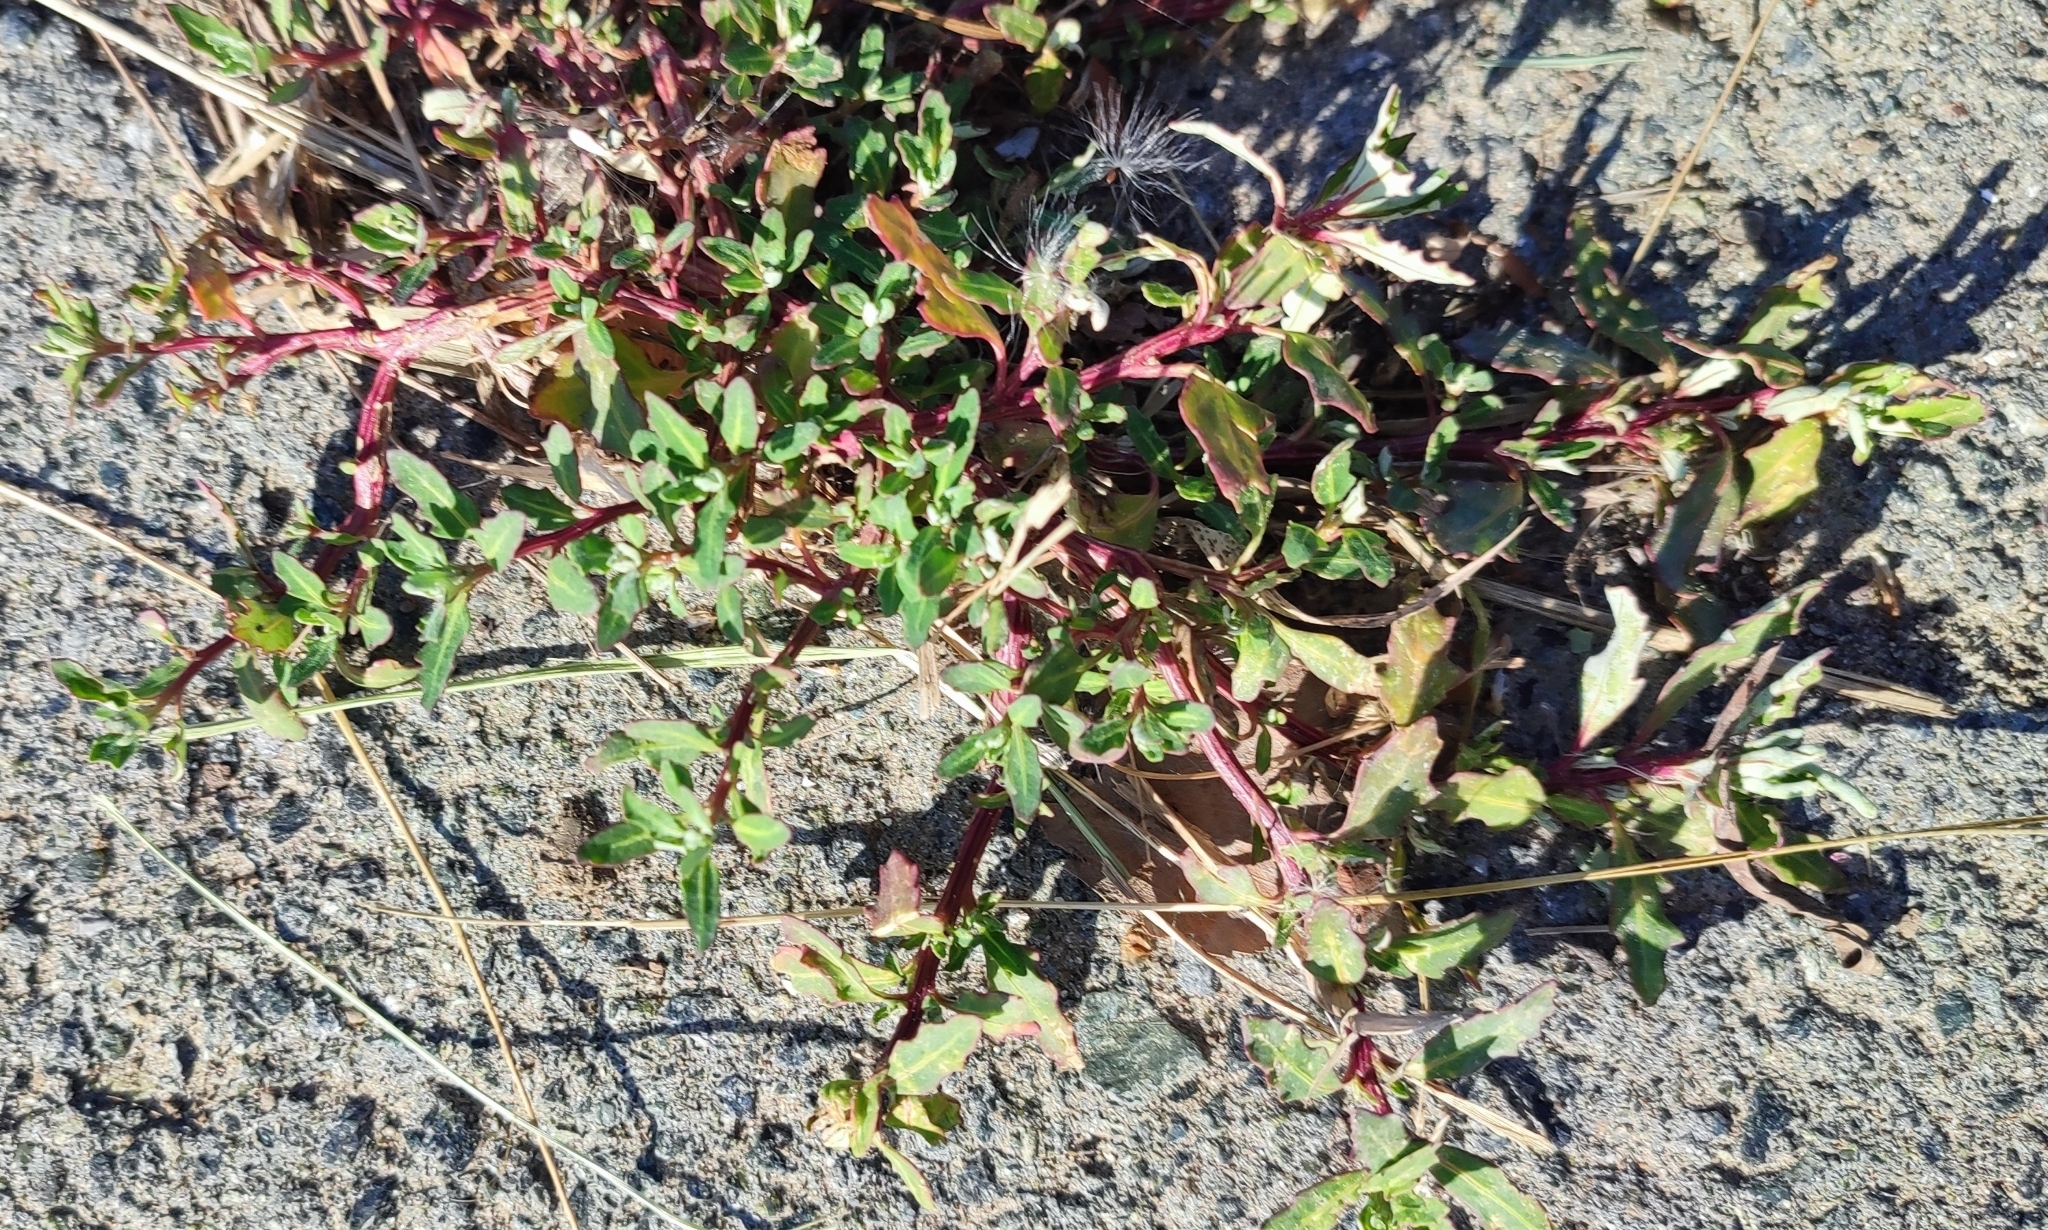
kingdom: Plantae
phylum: Tracheophyta
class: Magnoliopsida
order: Caryophyllales
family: Amaranthaceae
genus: Oxybasis
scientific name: Oxybasis glauca
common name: Glaucous goosefoot
